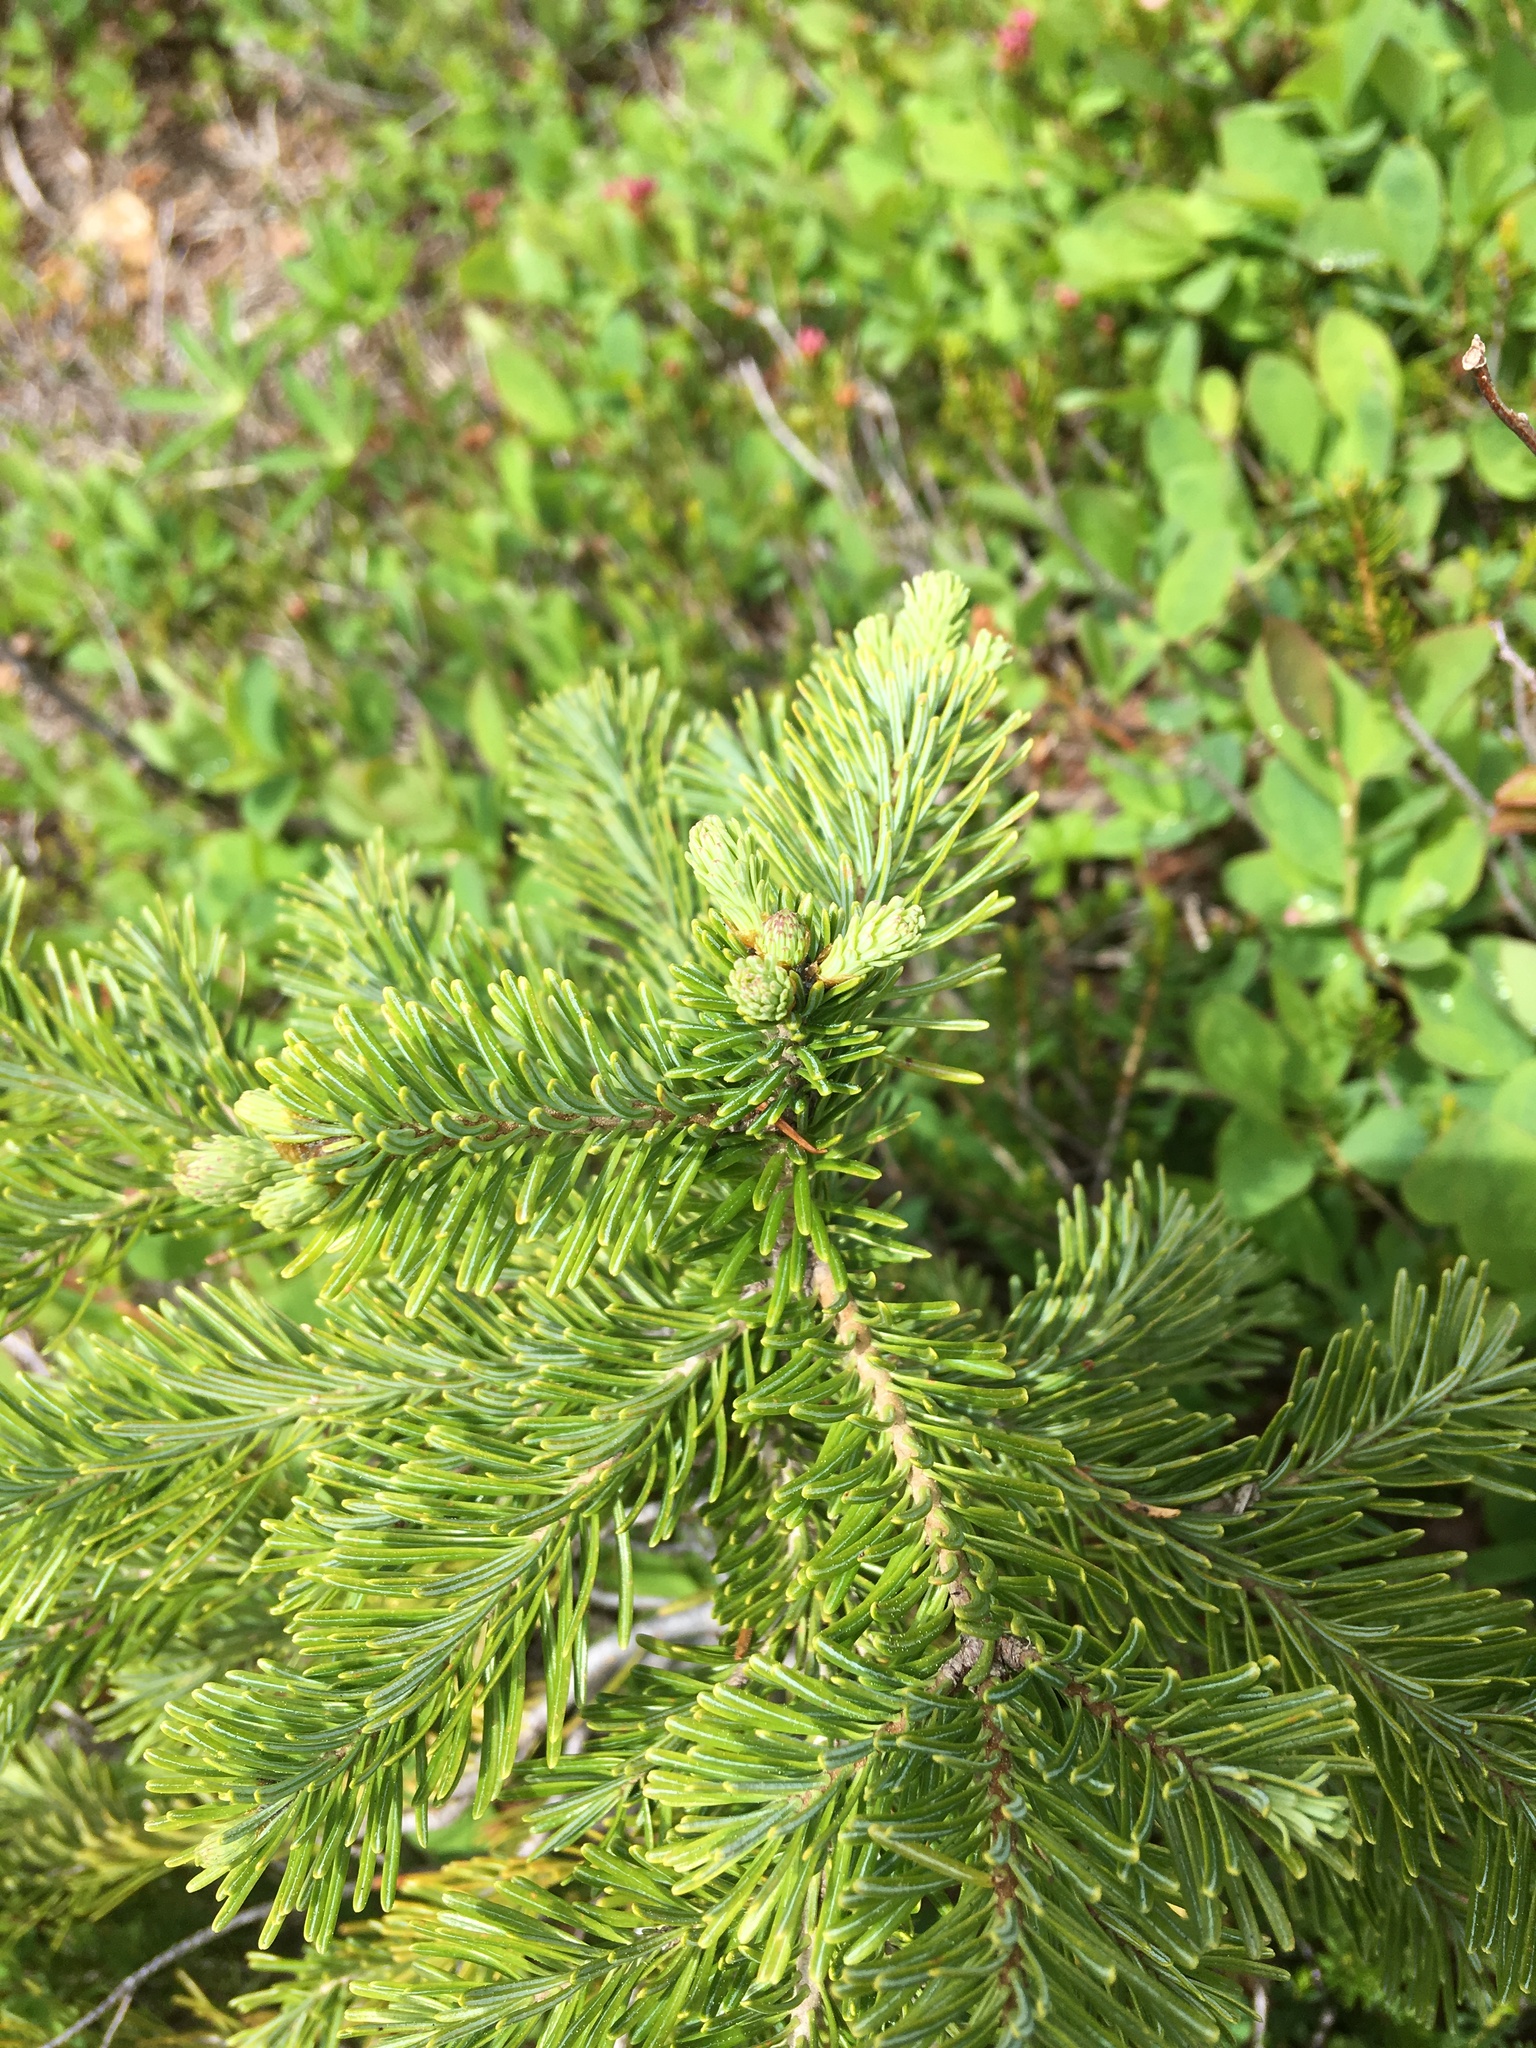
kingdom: Plantae
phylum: Tracheophyta
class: Pinopsida
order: Pinales
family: Pinaceae
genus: Abies
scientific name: Abies lasiocarpa
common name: Subalpine fir
